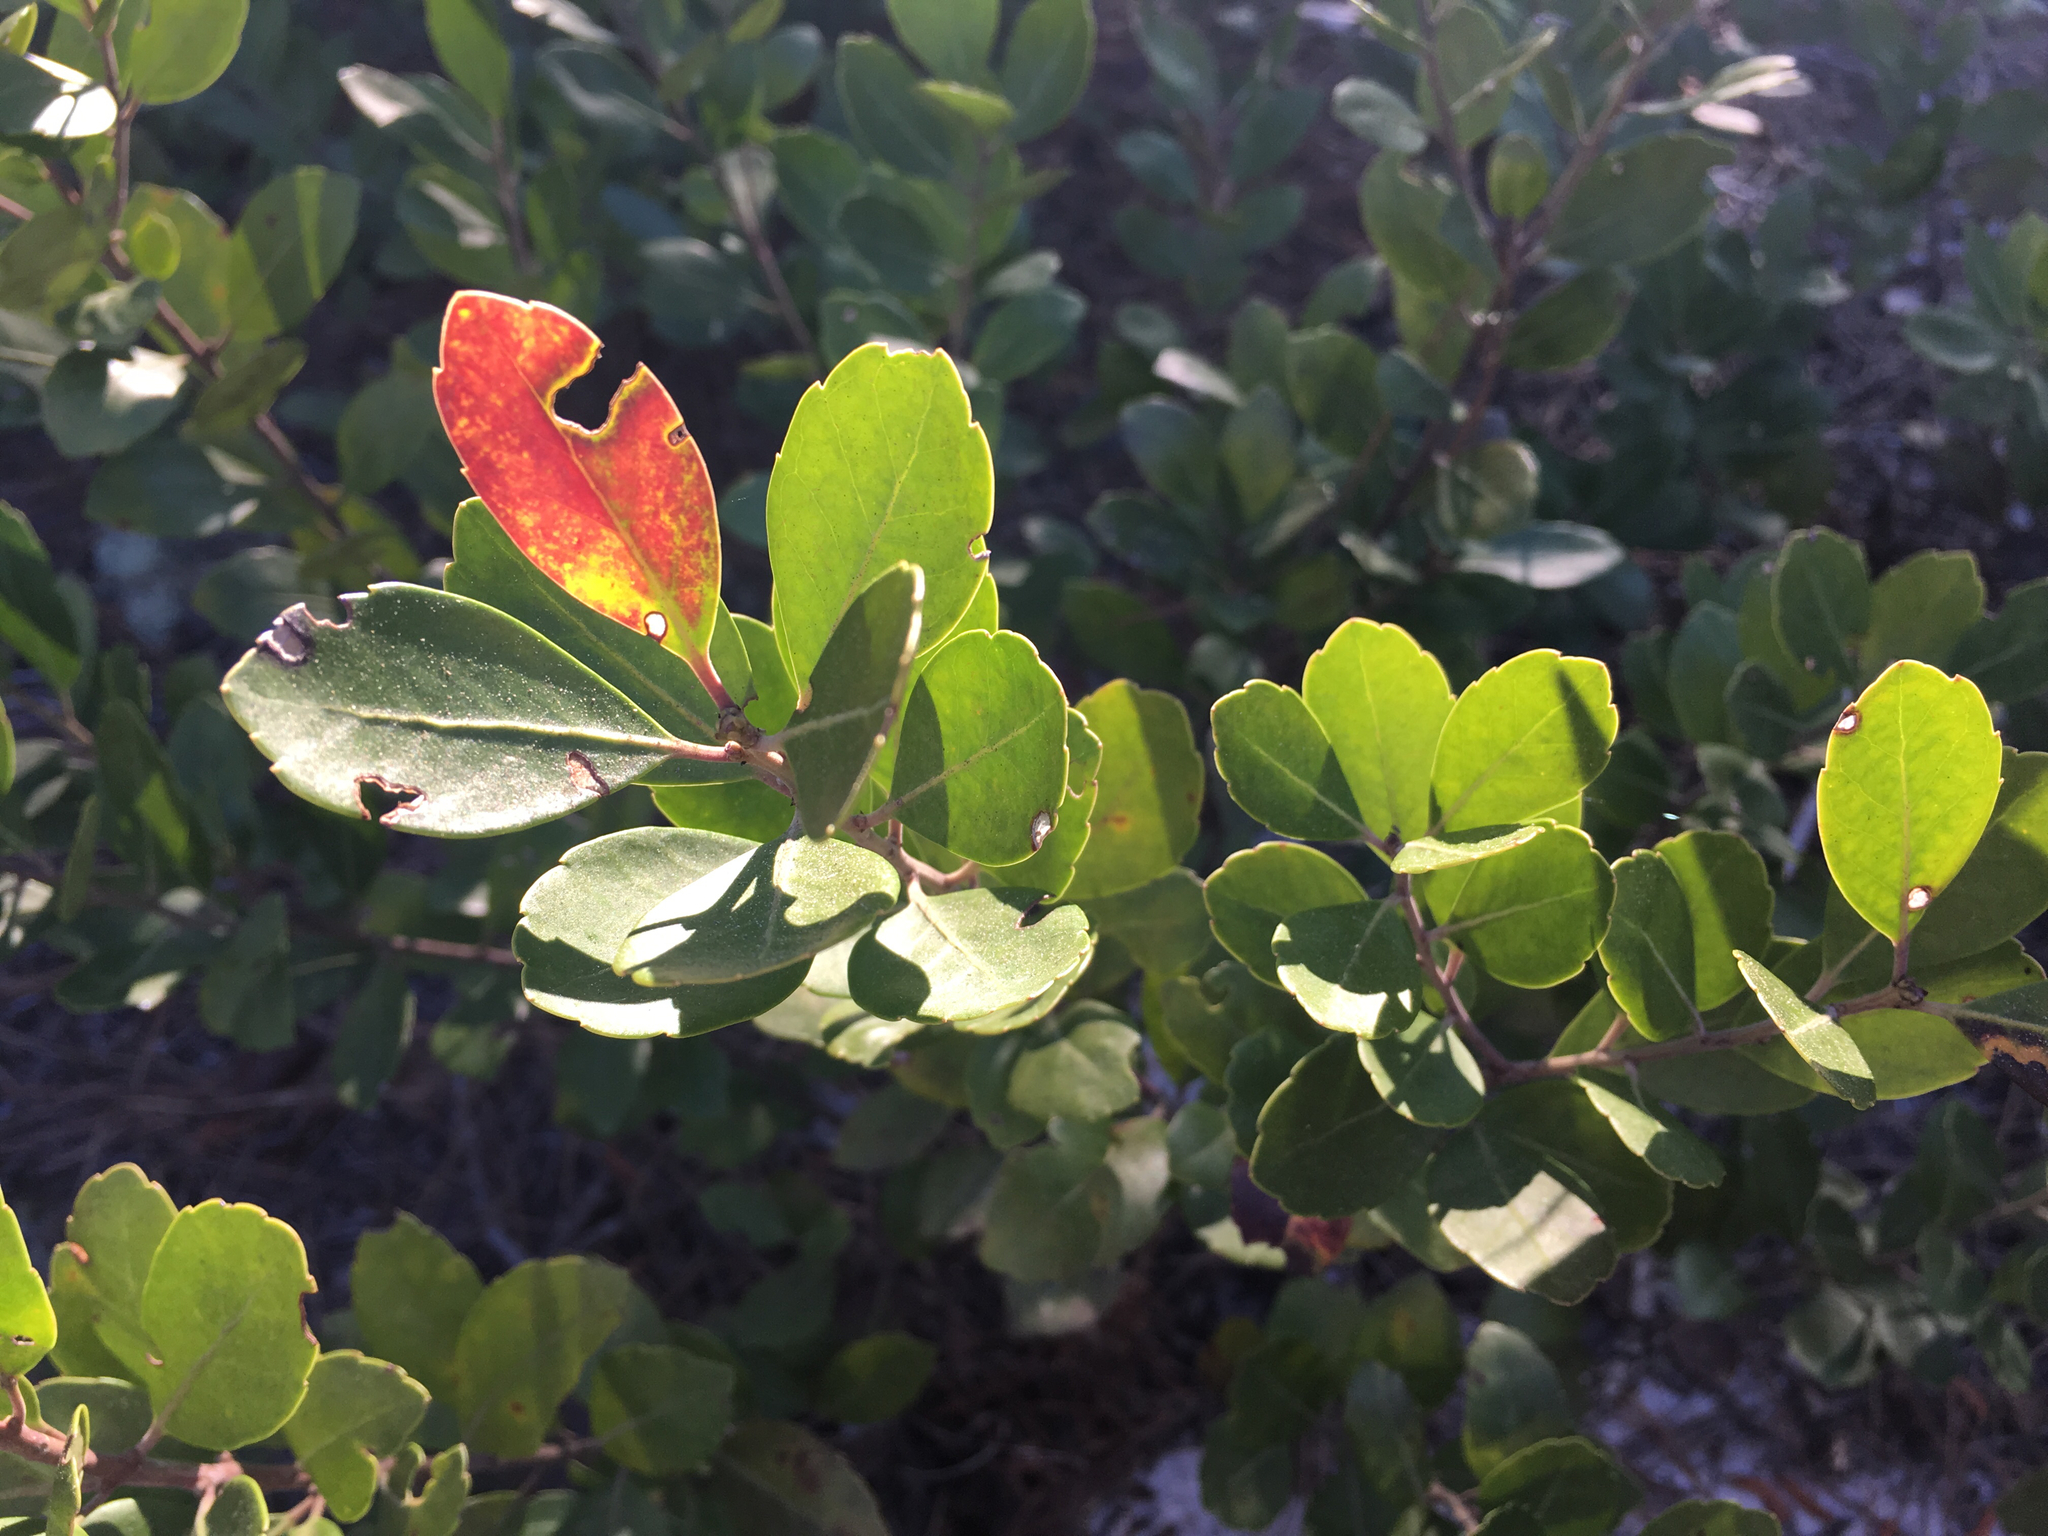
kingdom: Plantae
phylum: Tracheophyta
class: Magnoliopsida
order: Aquifoliales
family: Aquifoliaceae
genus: Ilex
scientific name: Ilex glabra
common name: Bitter gallberry
